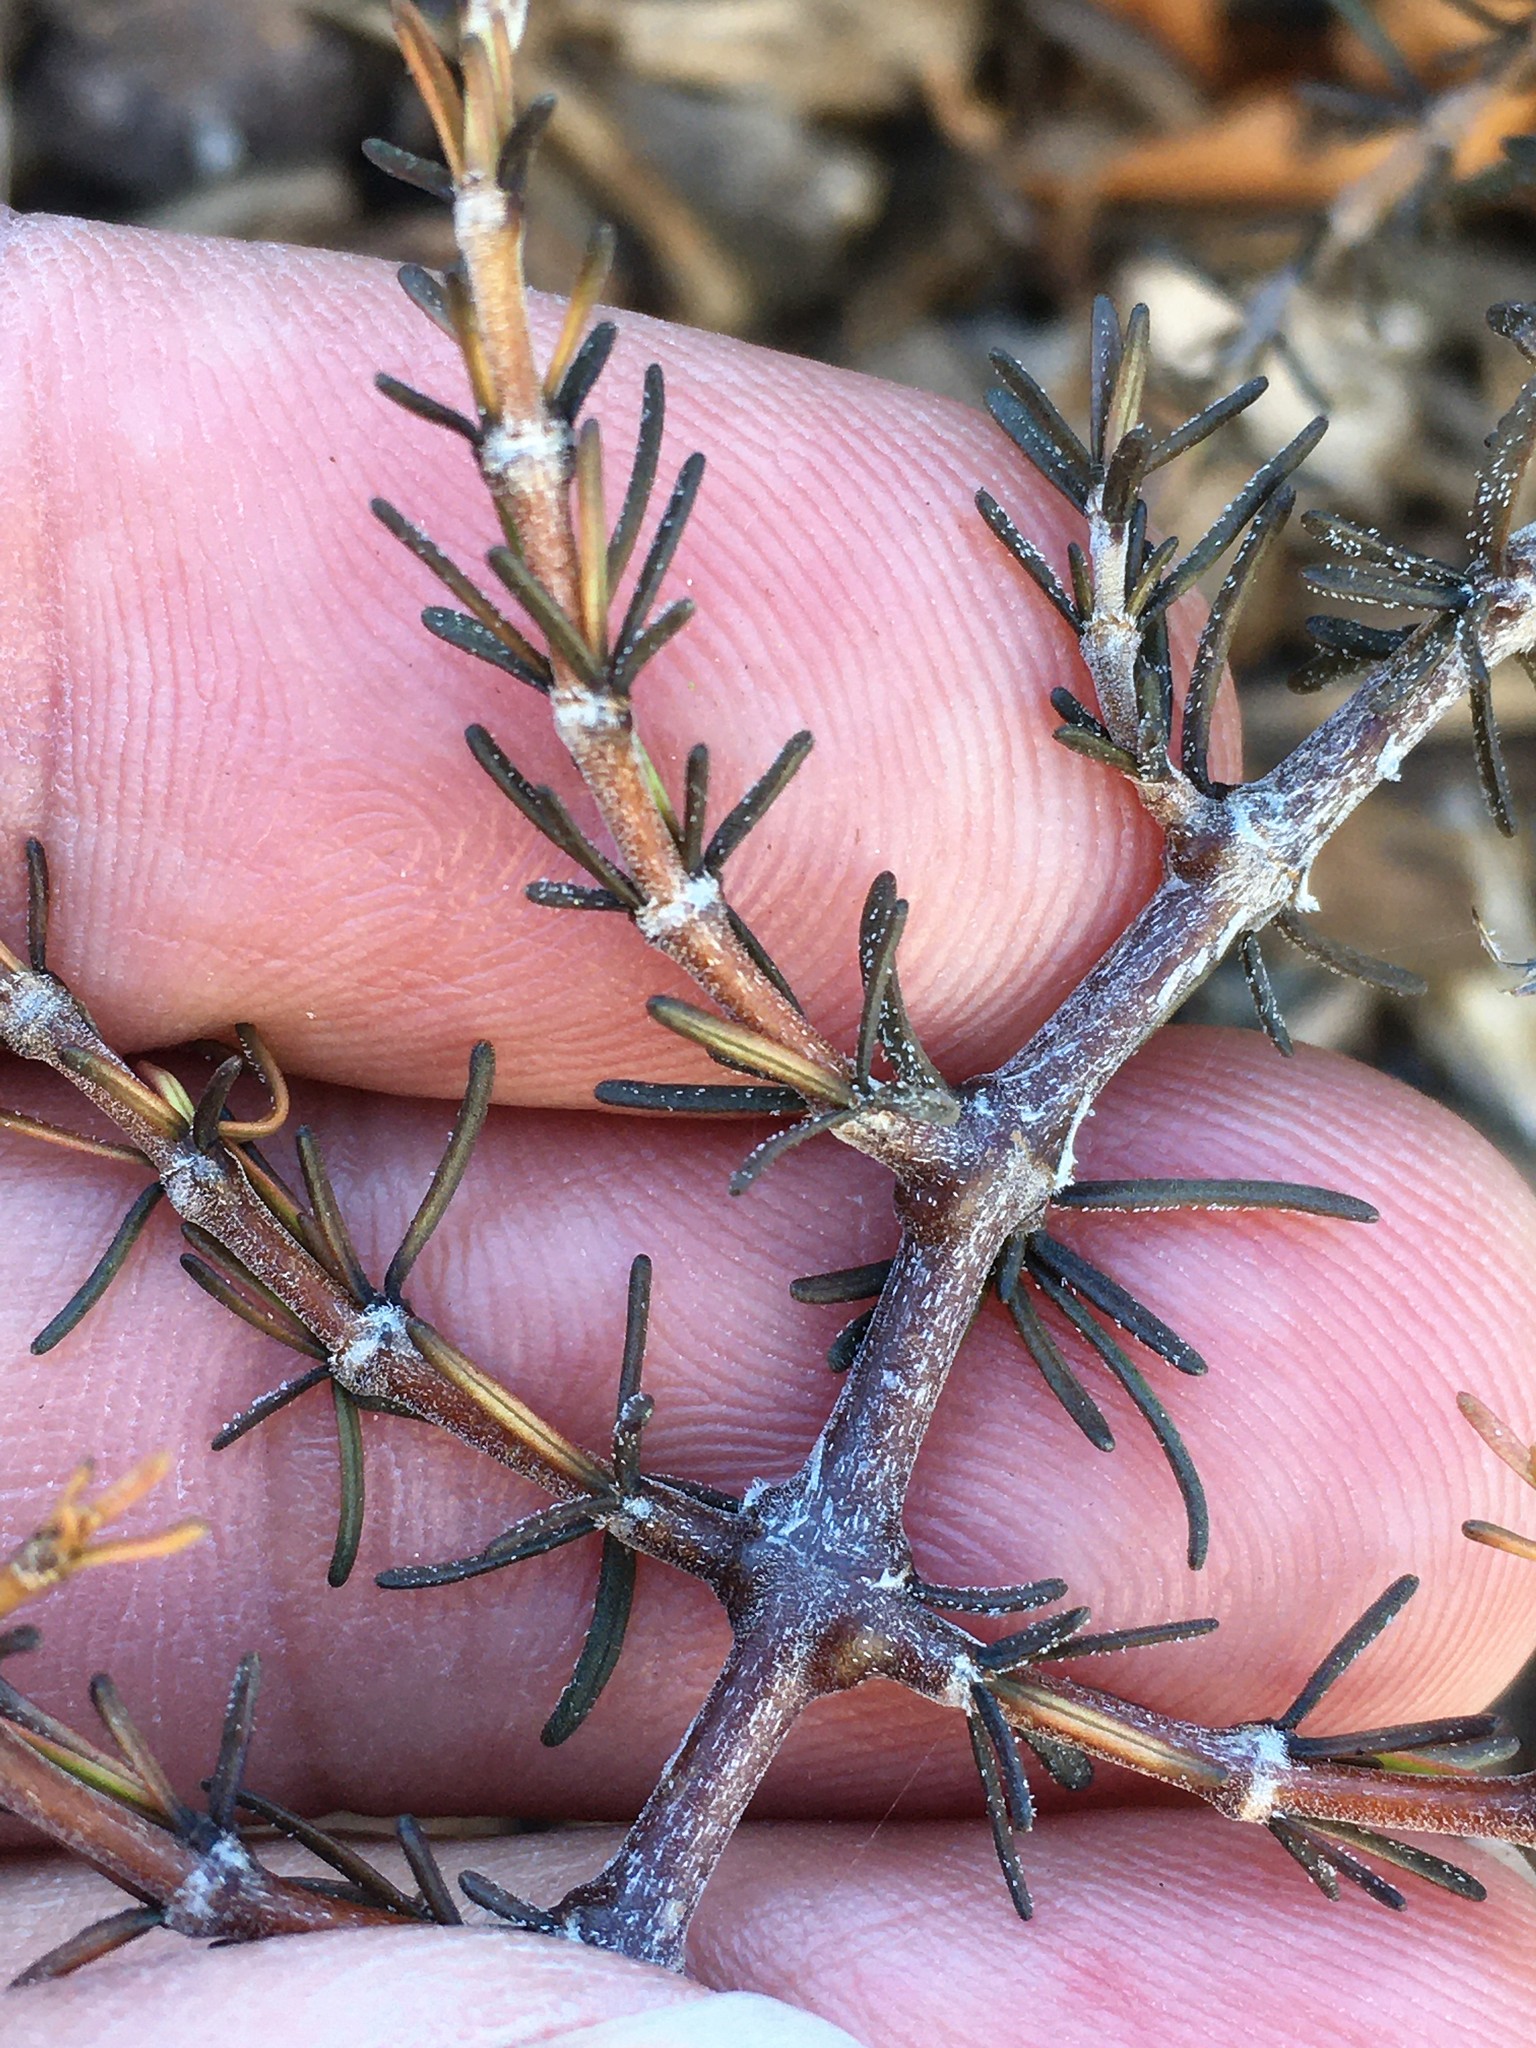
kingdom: Plantae
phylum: Tracheophyta
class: Magnoliopsida
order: Gentianales
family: Rubiaceae
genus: Coprosma
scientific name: Coprosma acerosa
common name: Sand coprosma
